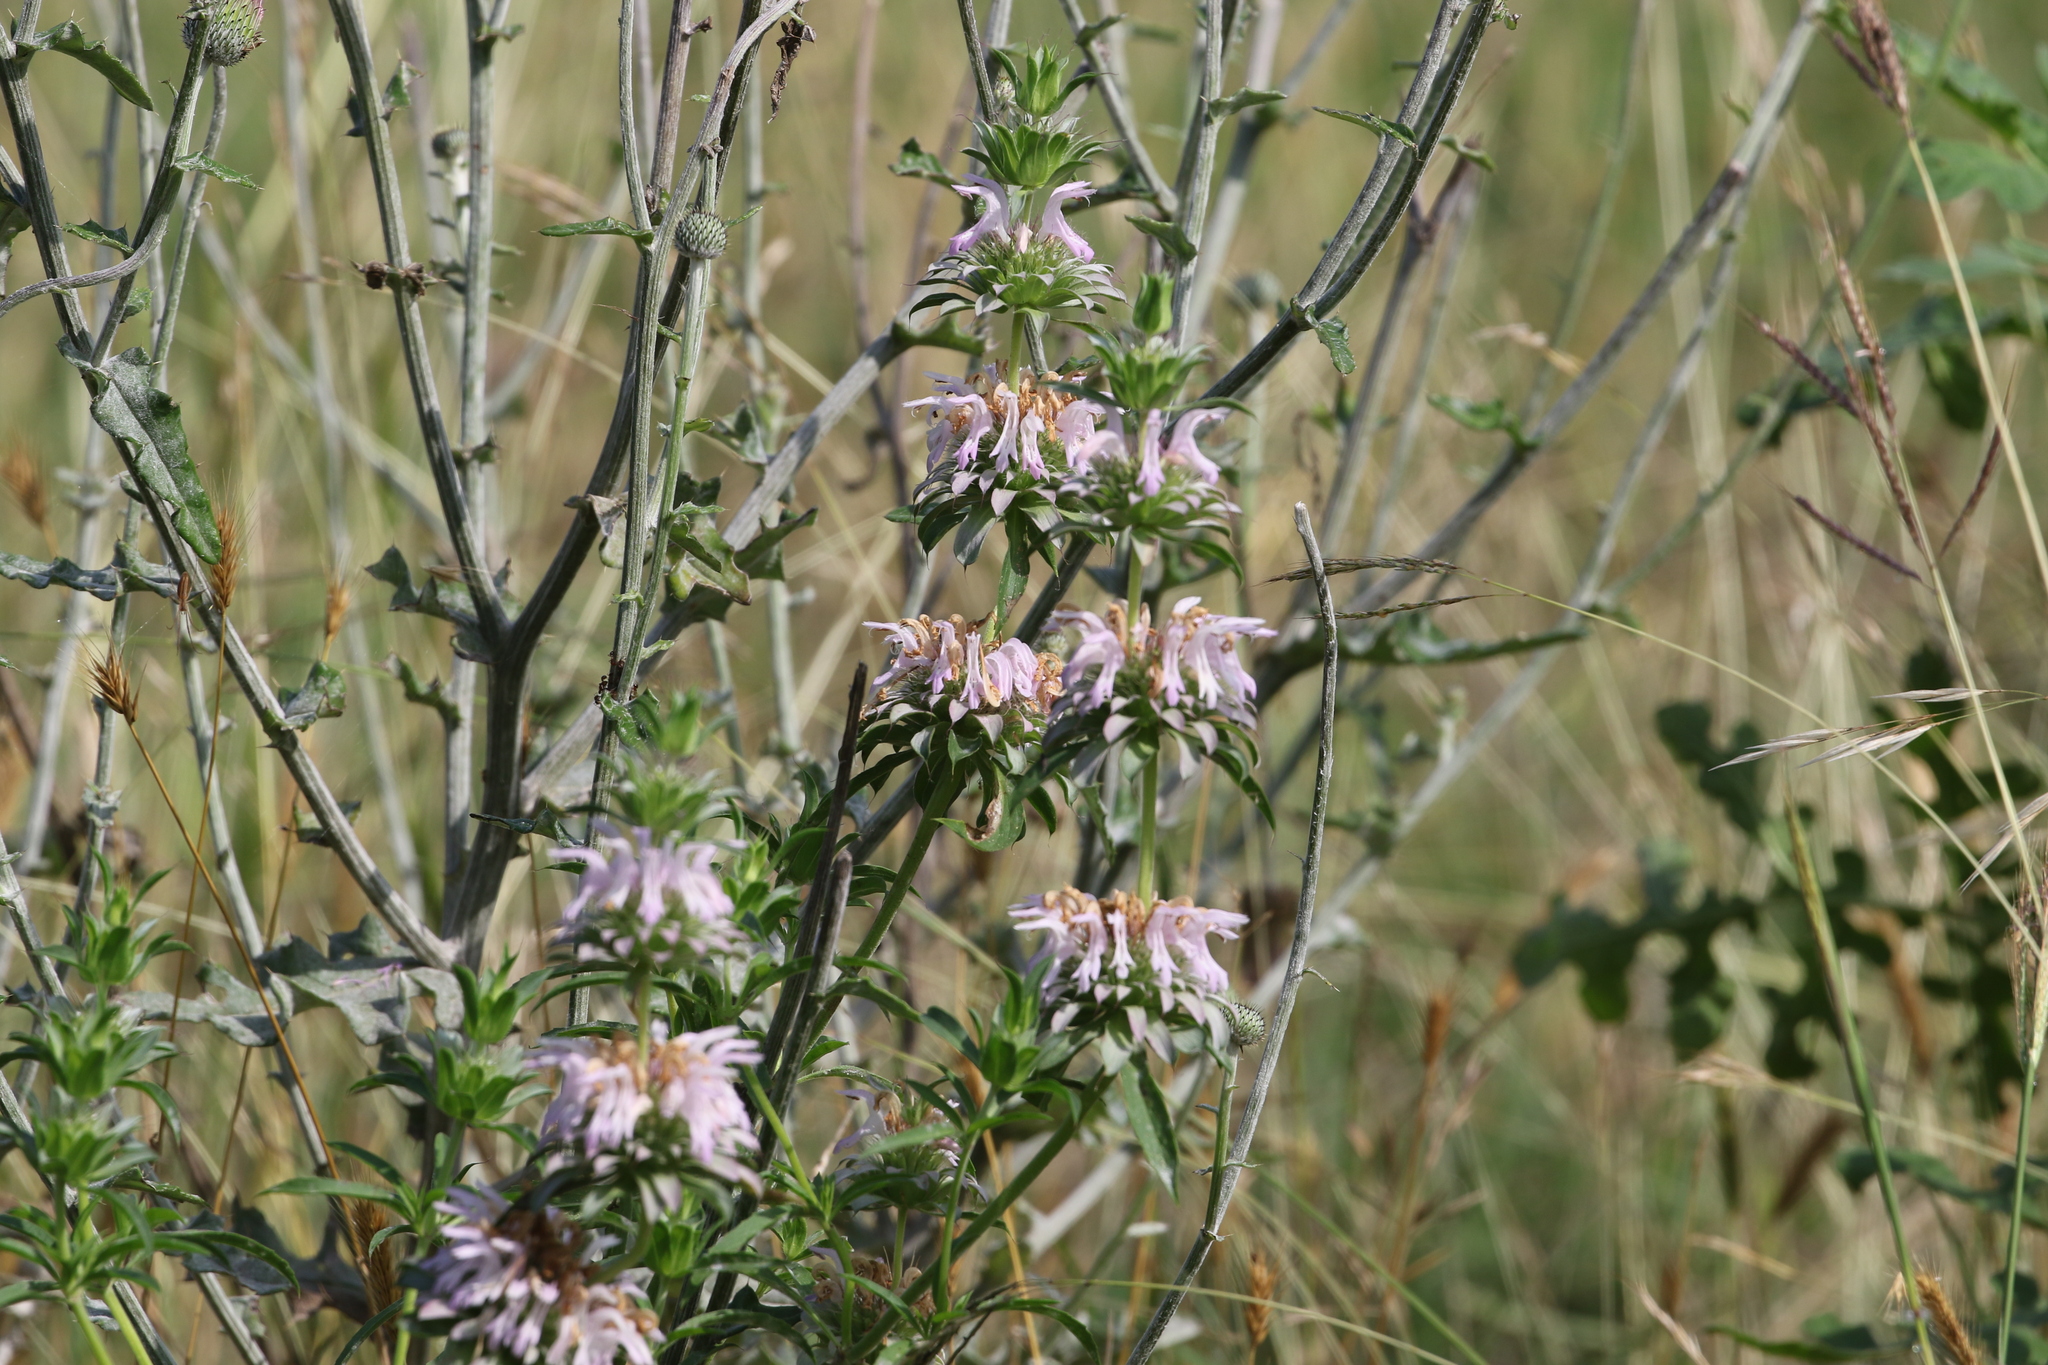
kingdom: Plantae
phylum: Tracheophyta
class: Magnoliopsida
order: Lamiales
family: Lamiaceae
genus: Monarda
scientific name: Monarda citriodora
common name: Lemon beebalm
